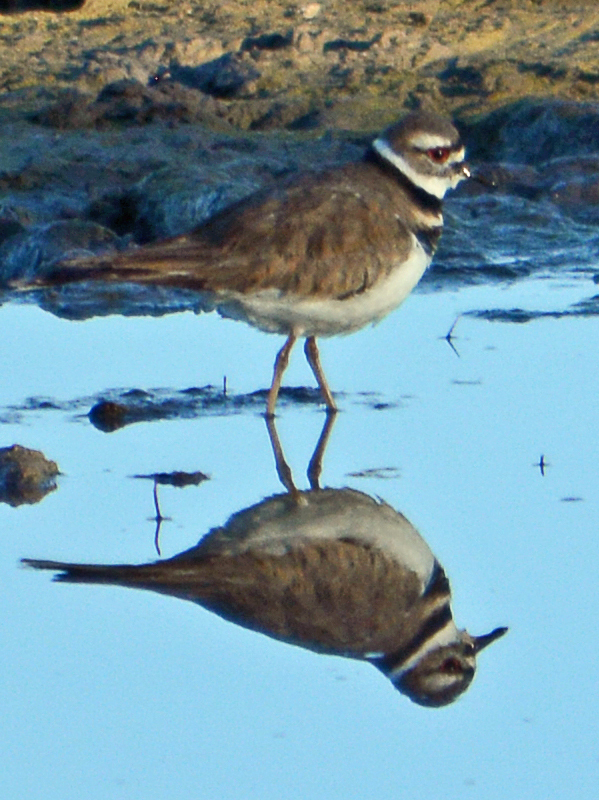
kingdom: Animalia
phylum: Chordata
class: Aves
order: Charadriiformes
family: Charadriidae
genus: Charadrius
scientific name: Charadrius vociferus
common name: Killdeer
